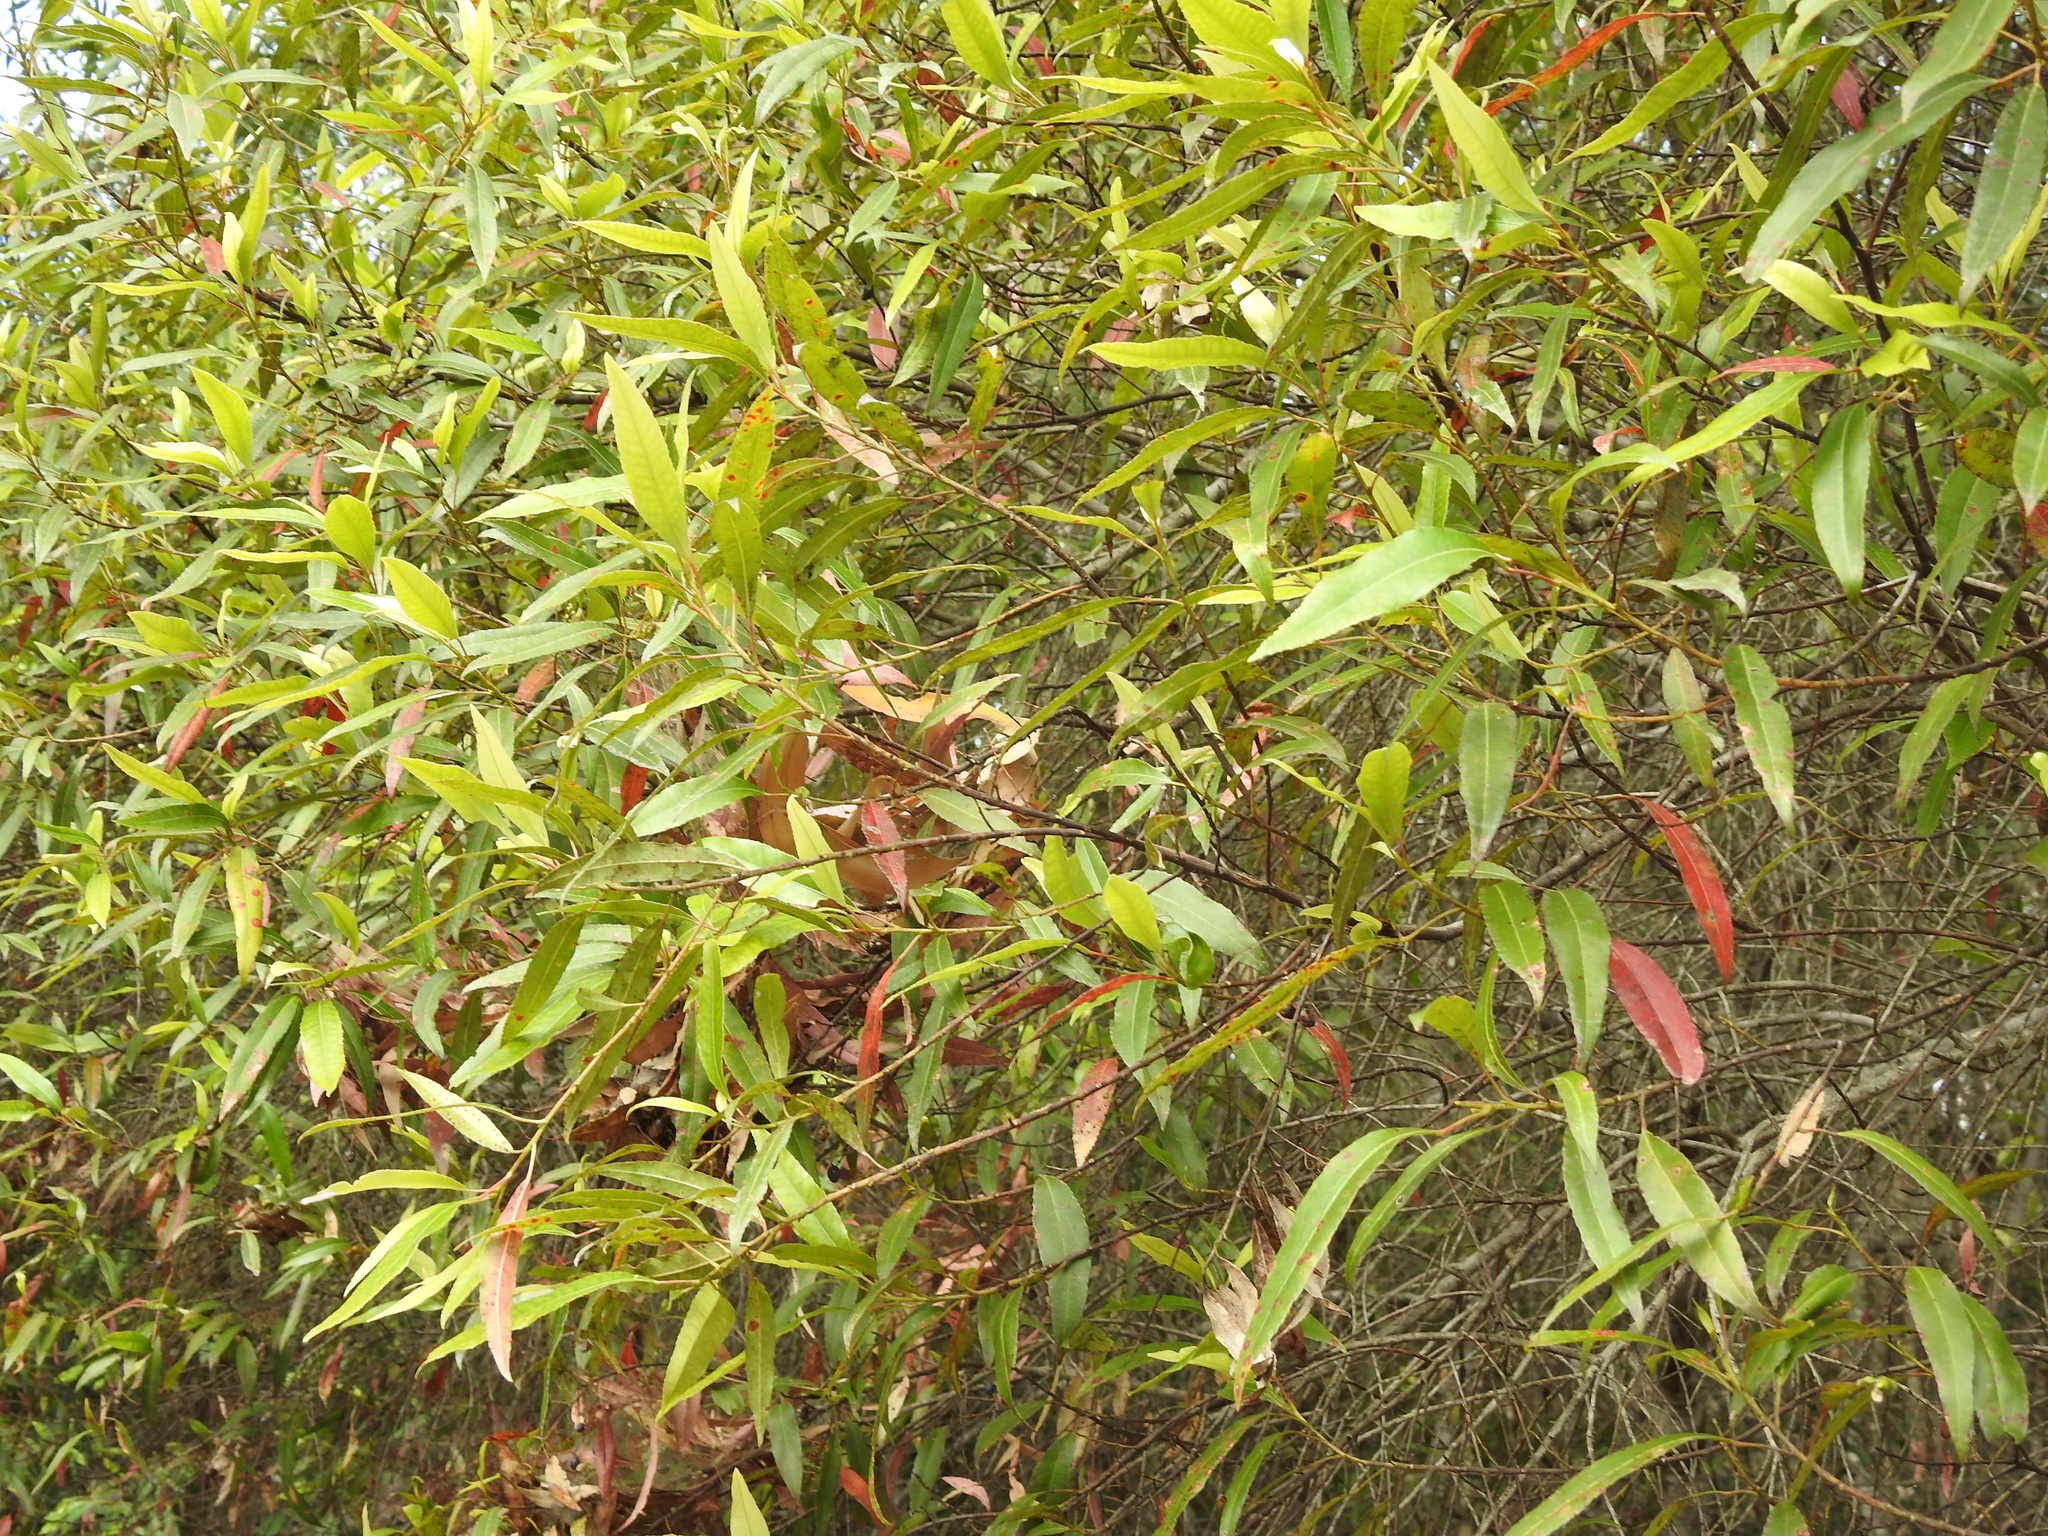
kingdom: Plantae
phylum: Tracheophyta
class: Magnoliopsida
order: Oxalidales
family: Elaeocarpaceae
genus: Elaeocarpus
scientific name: Elaeocarpus reticulatus
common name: Ash quandong
